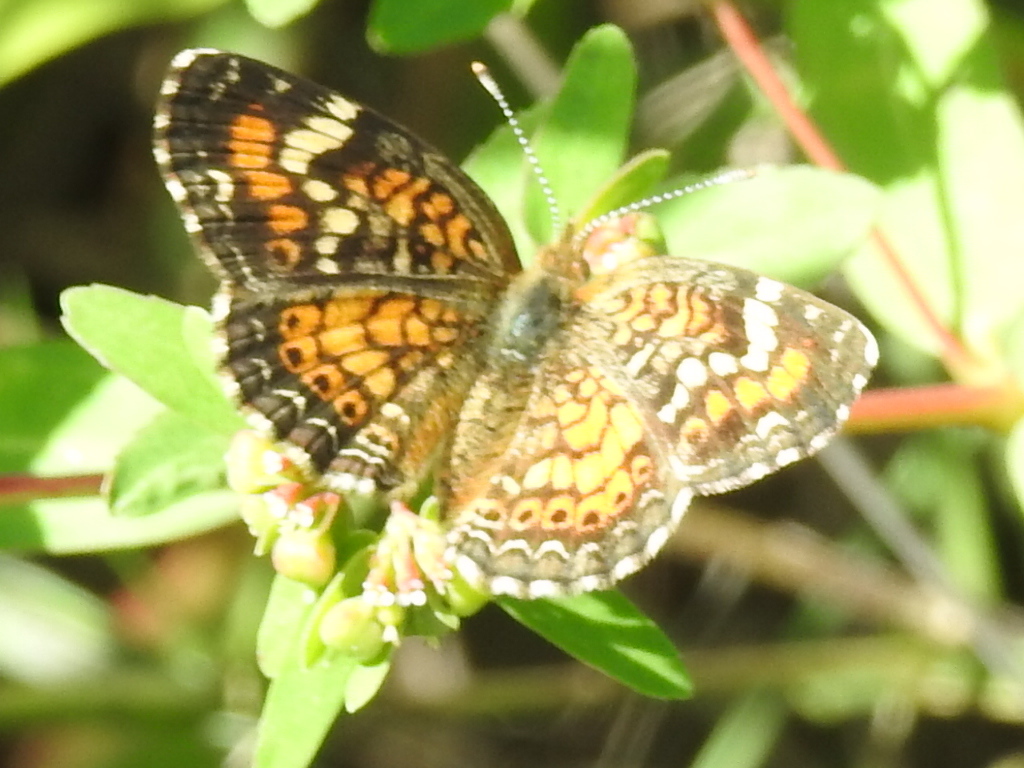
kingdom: Animalia
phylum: Arthropoda
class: Insecta
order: Lepidoptera
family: Nymphalidae
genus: Phyciodes
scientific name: Phyciodes phaon
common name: Phaon crescent
